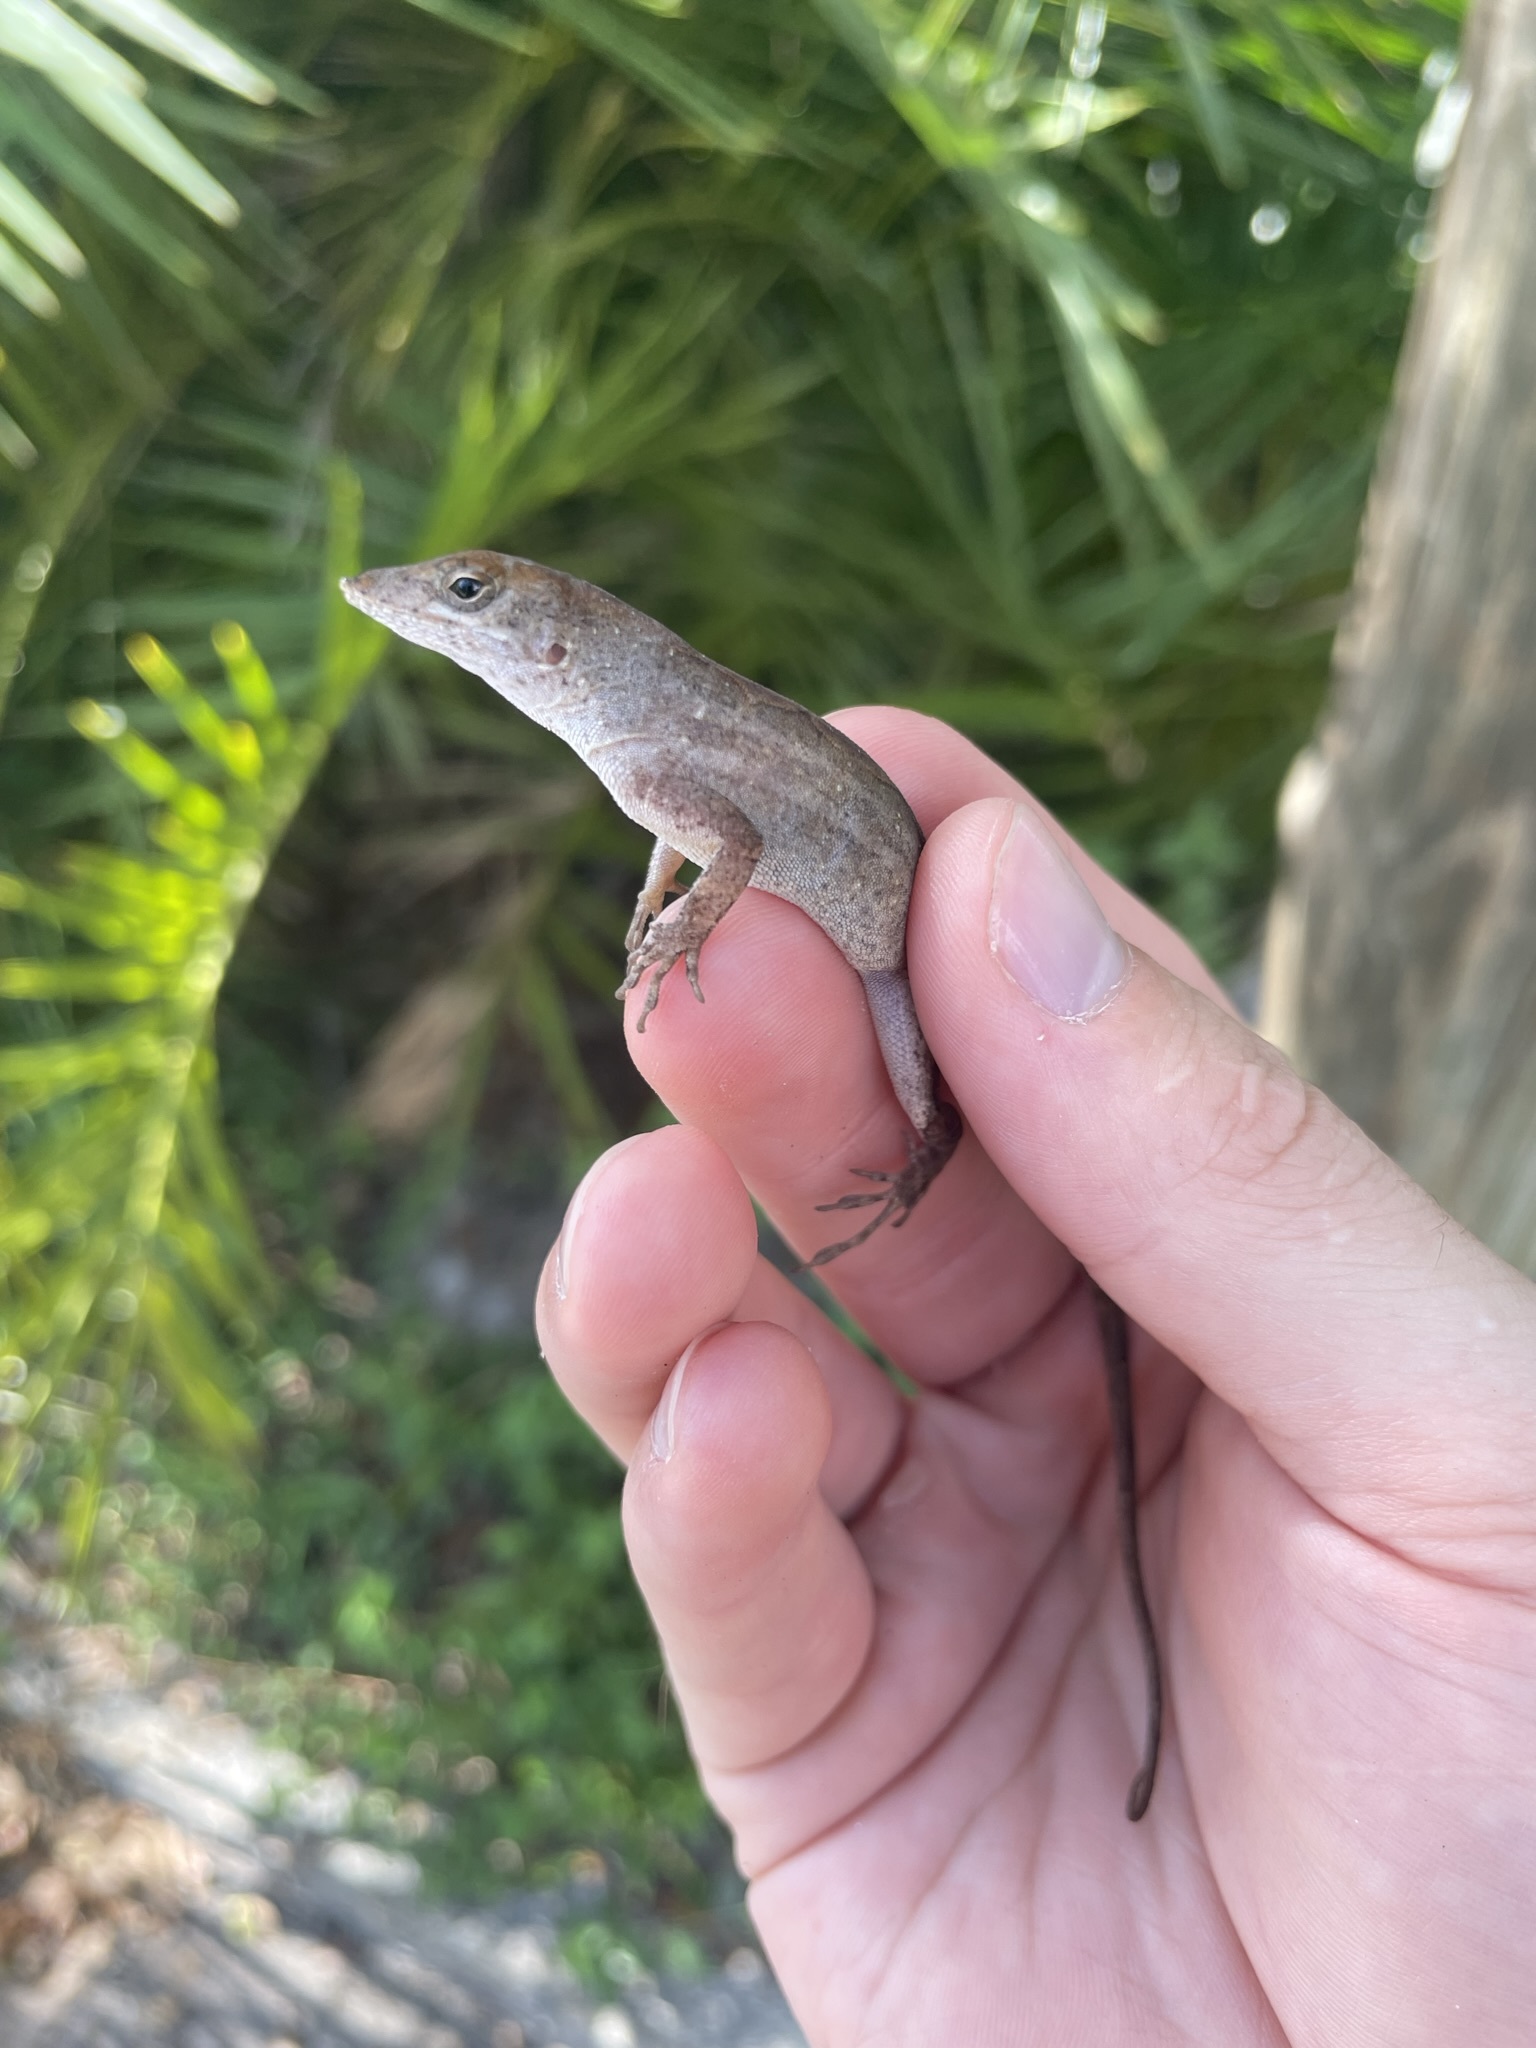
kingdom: Animalia
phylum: Chordata
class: Squamata
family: Dactyloidae
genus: Anolis
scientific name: Anolis sagrei
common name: Brown anole
